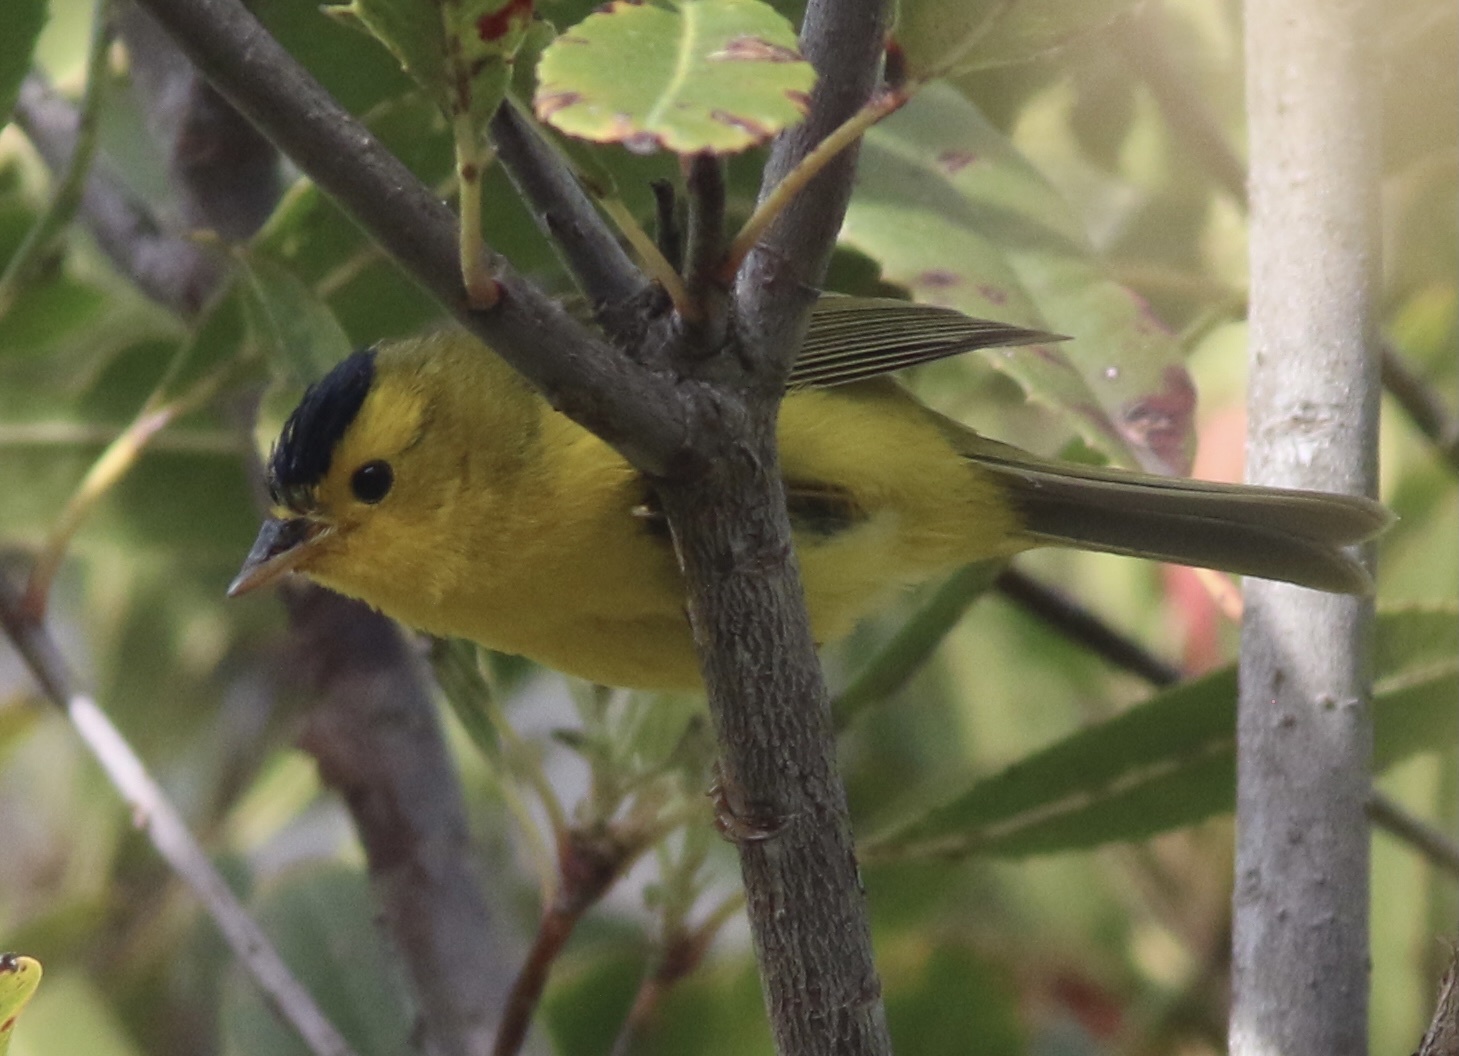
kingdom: Animalia
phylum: Chordata
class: Aves
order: Passeriformes
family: Parulidae
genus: Cardellina
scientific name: Cardellina pusilla
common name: Wilson's warbler
